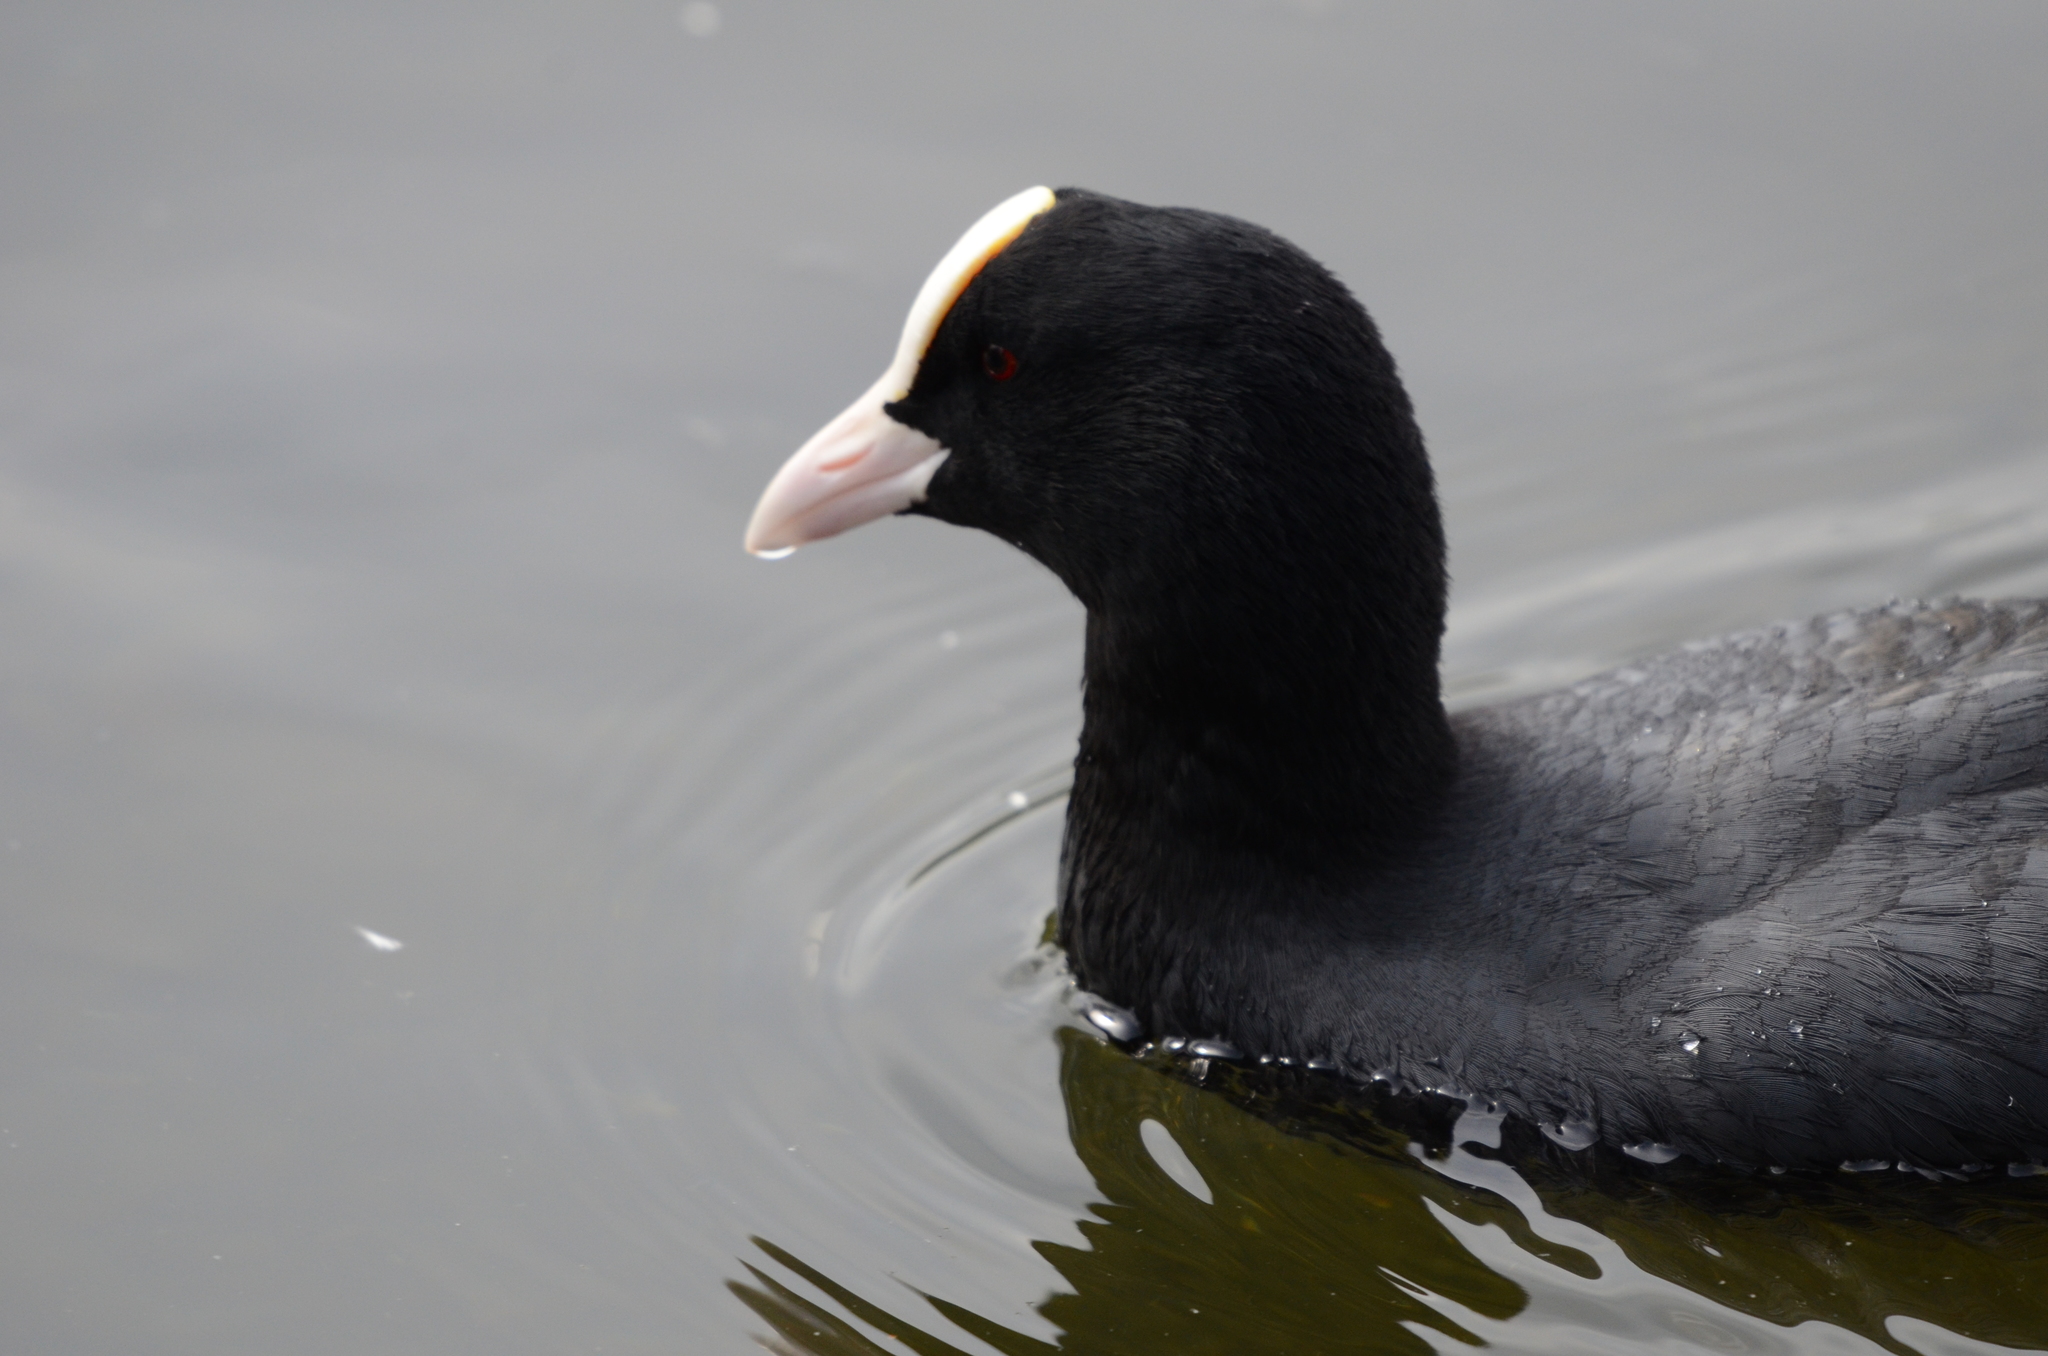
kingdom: Animalia
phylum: Chordata
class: Aves
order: Gruiformes
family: Rallidae
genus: Fulica
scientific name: Fulica atra
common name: Eurasian coot
